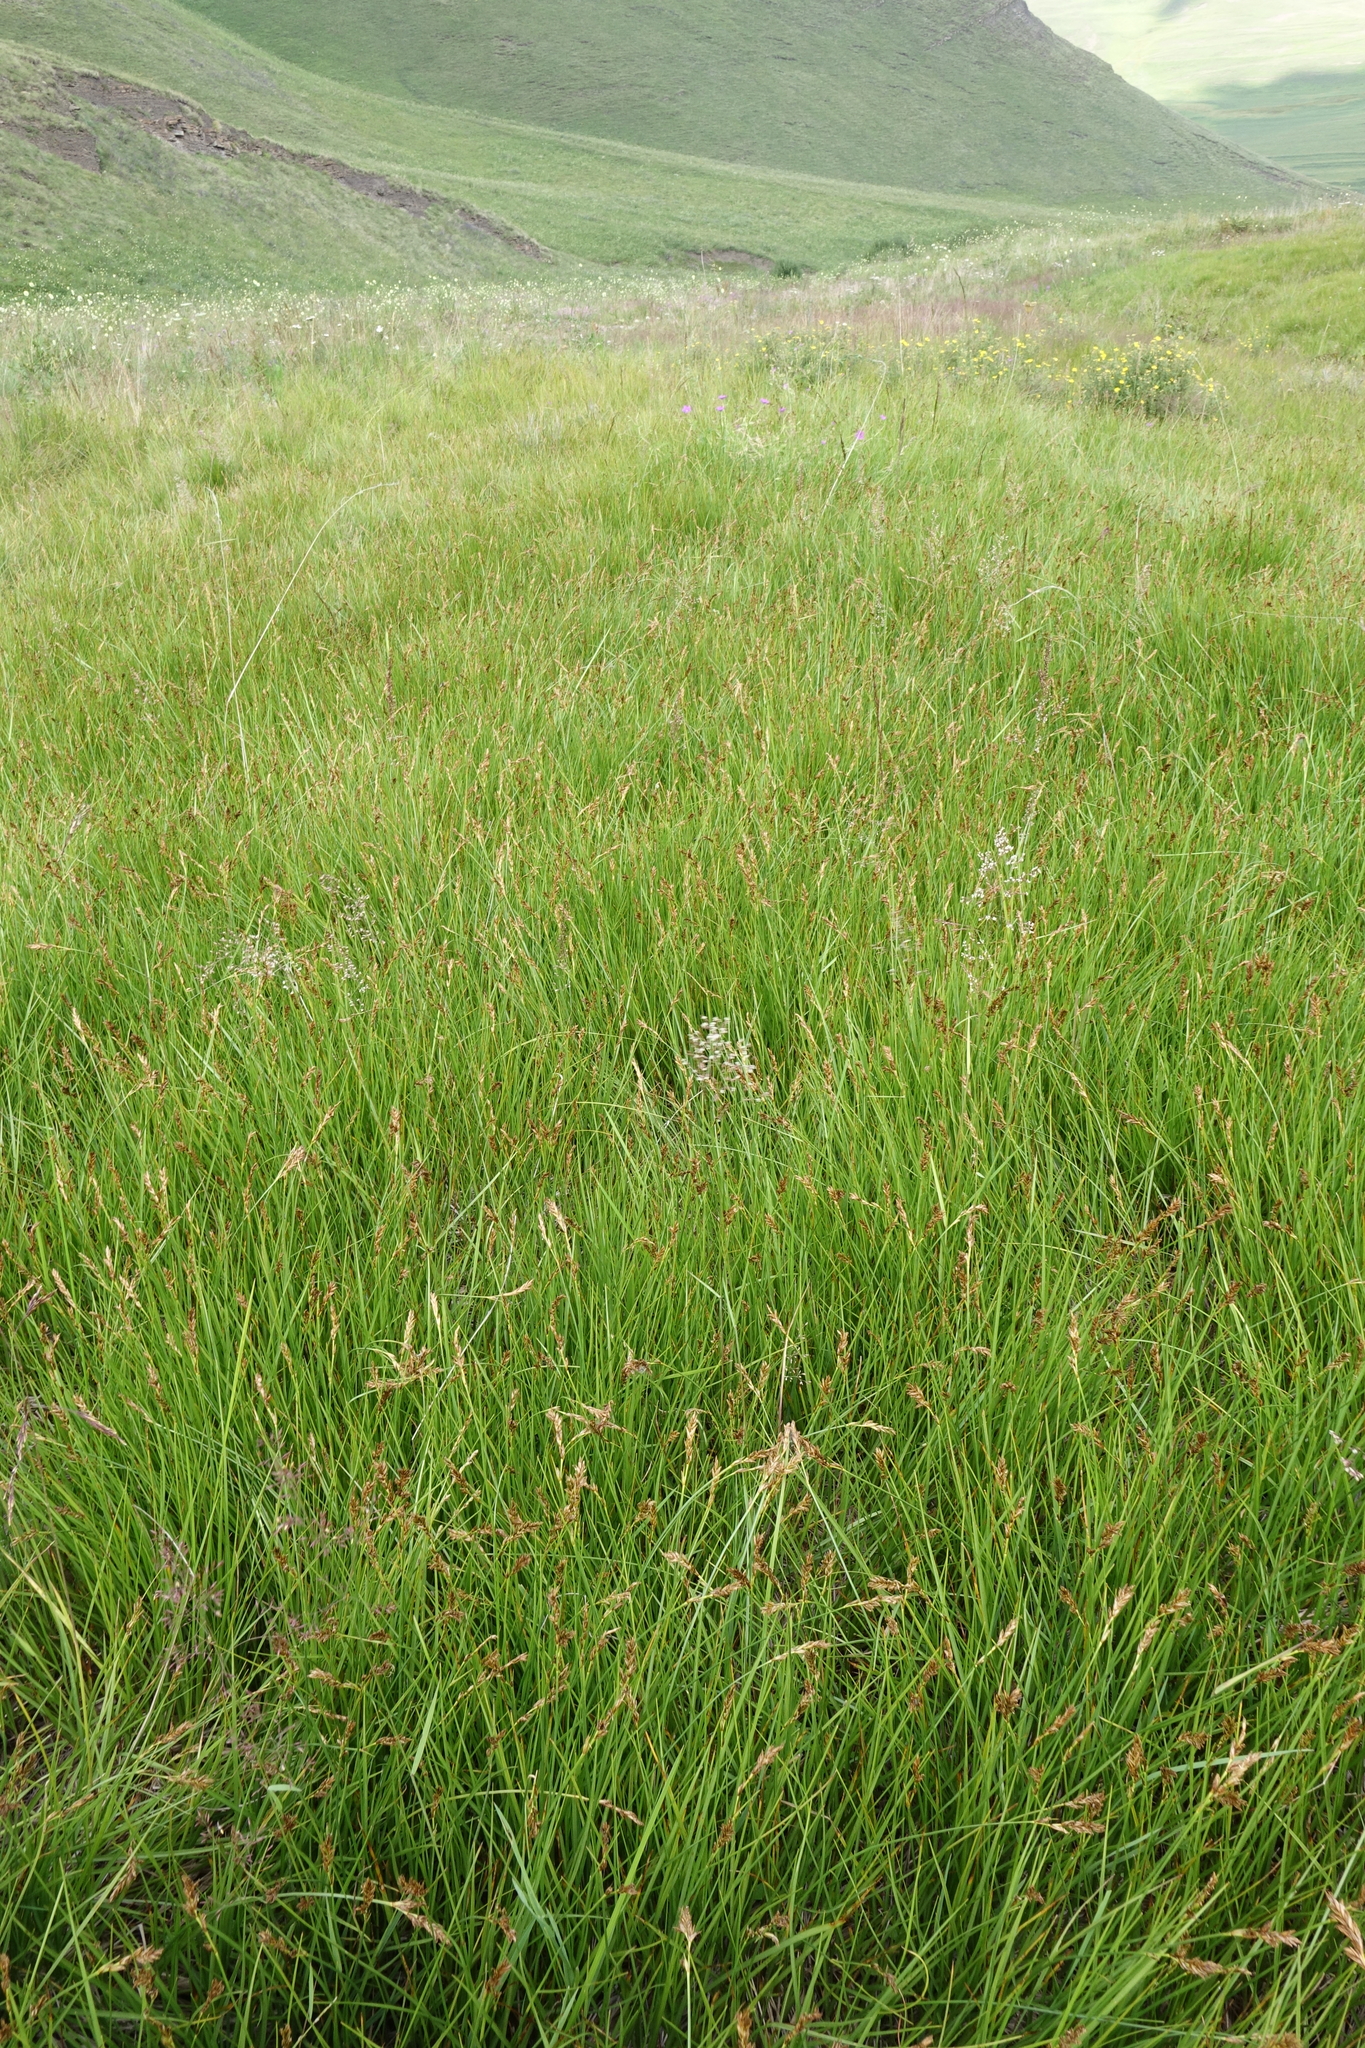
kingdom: Plantae
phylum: Tracheophyta
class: Liliopsida
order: Poales
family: Cyperaceae
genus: Blysmus
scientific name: Blysmus compressus
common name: Flat-sedge
